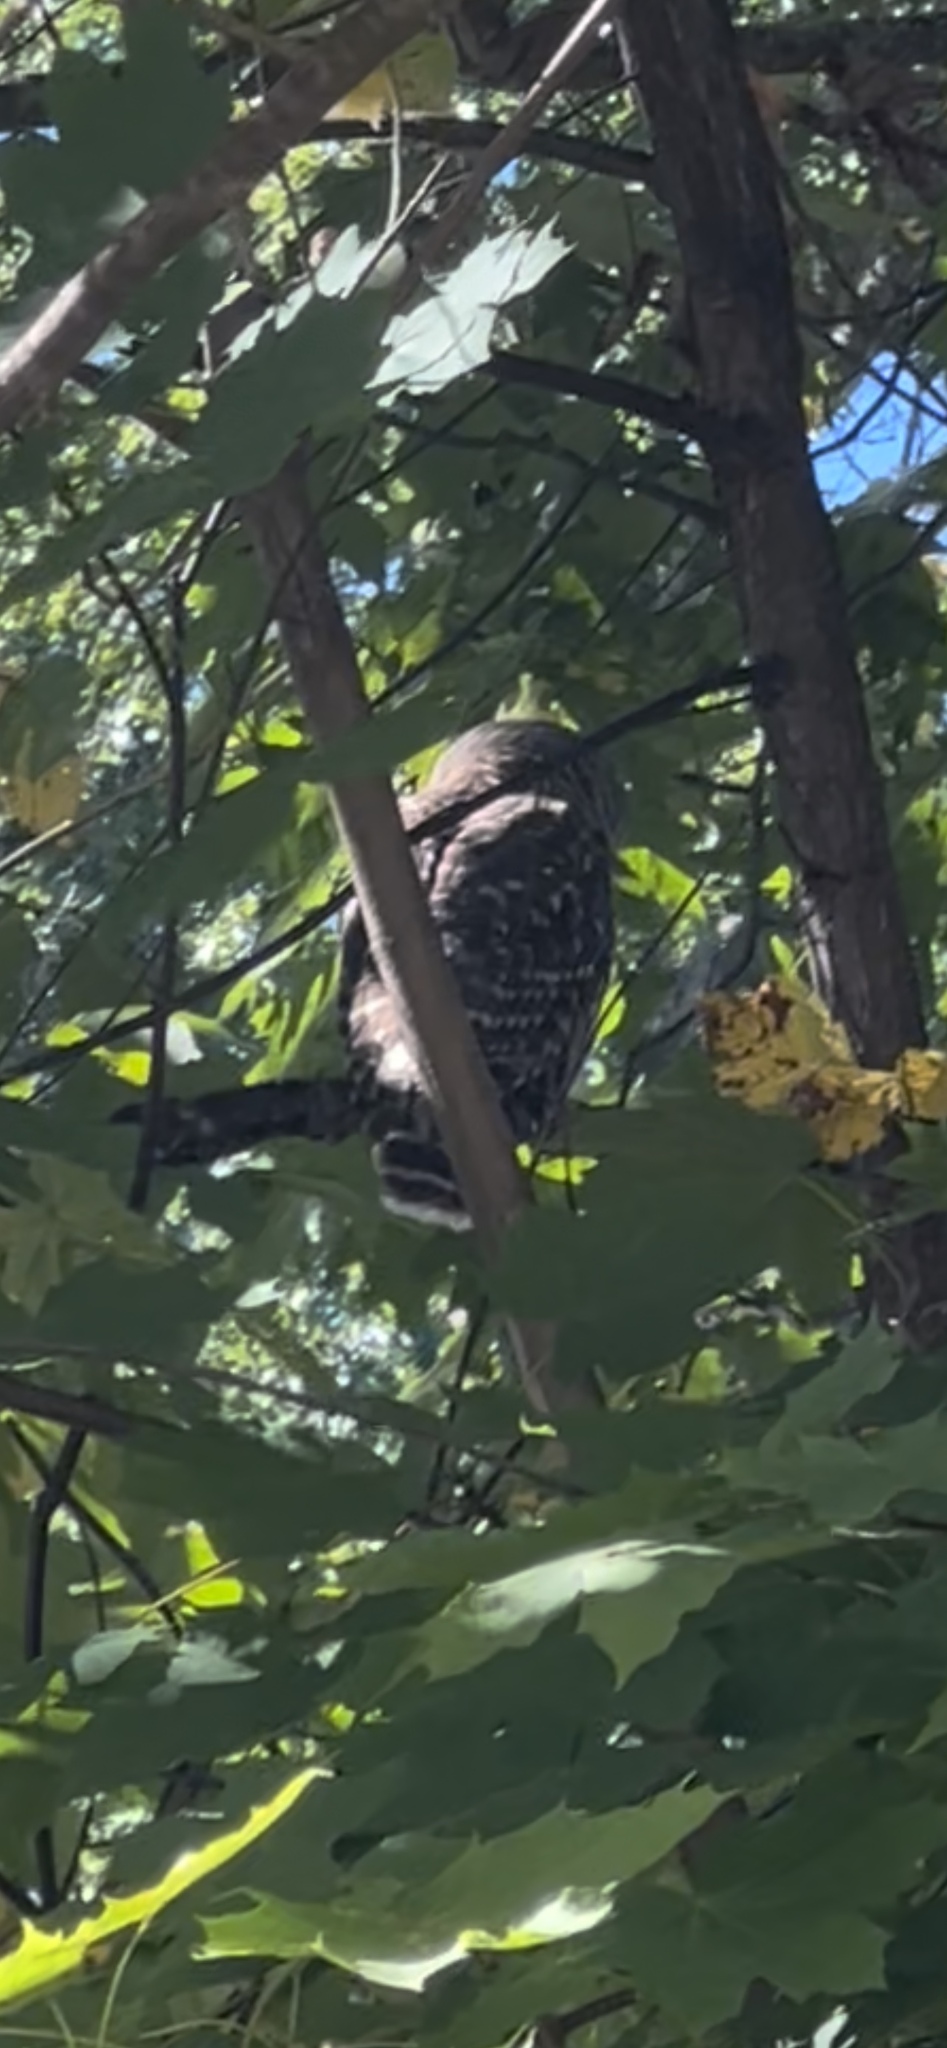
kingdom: Animalia
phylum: Chordata
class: Aves
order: Strigiformes
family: Strigidae
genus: Strix
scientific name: Strix varia
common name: Barred owl
